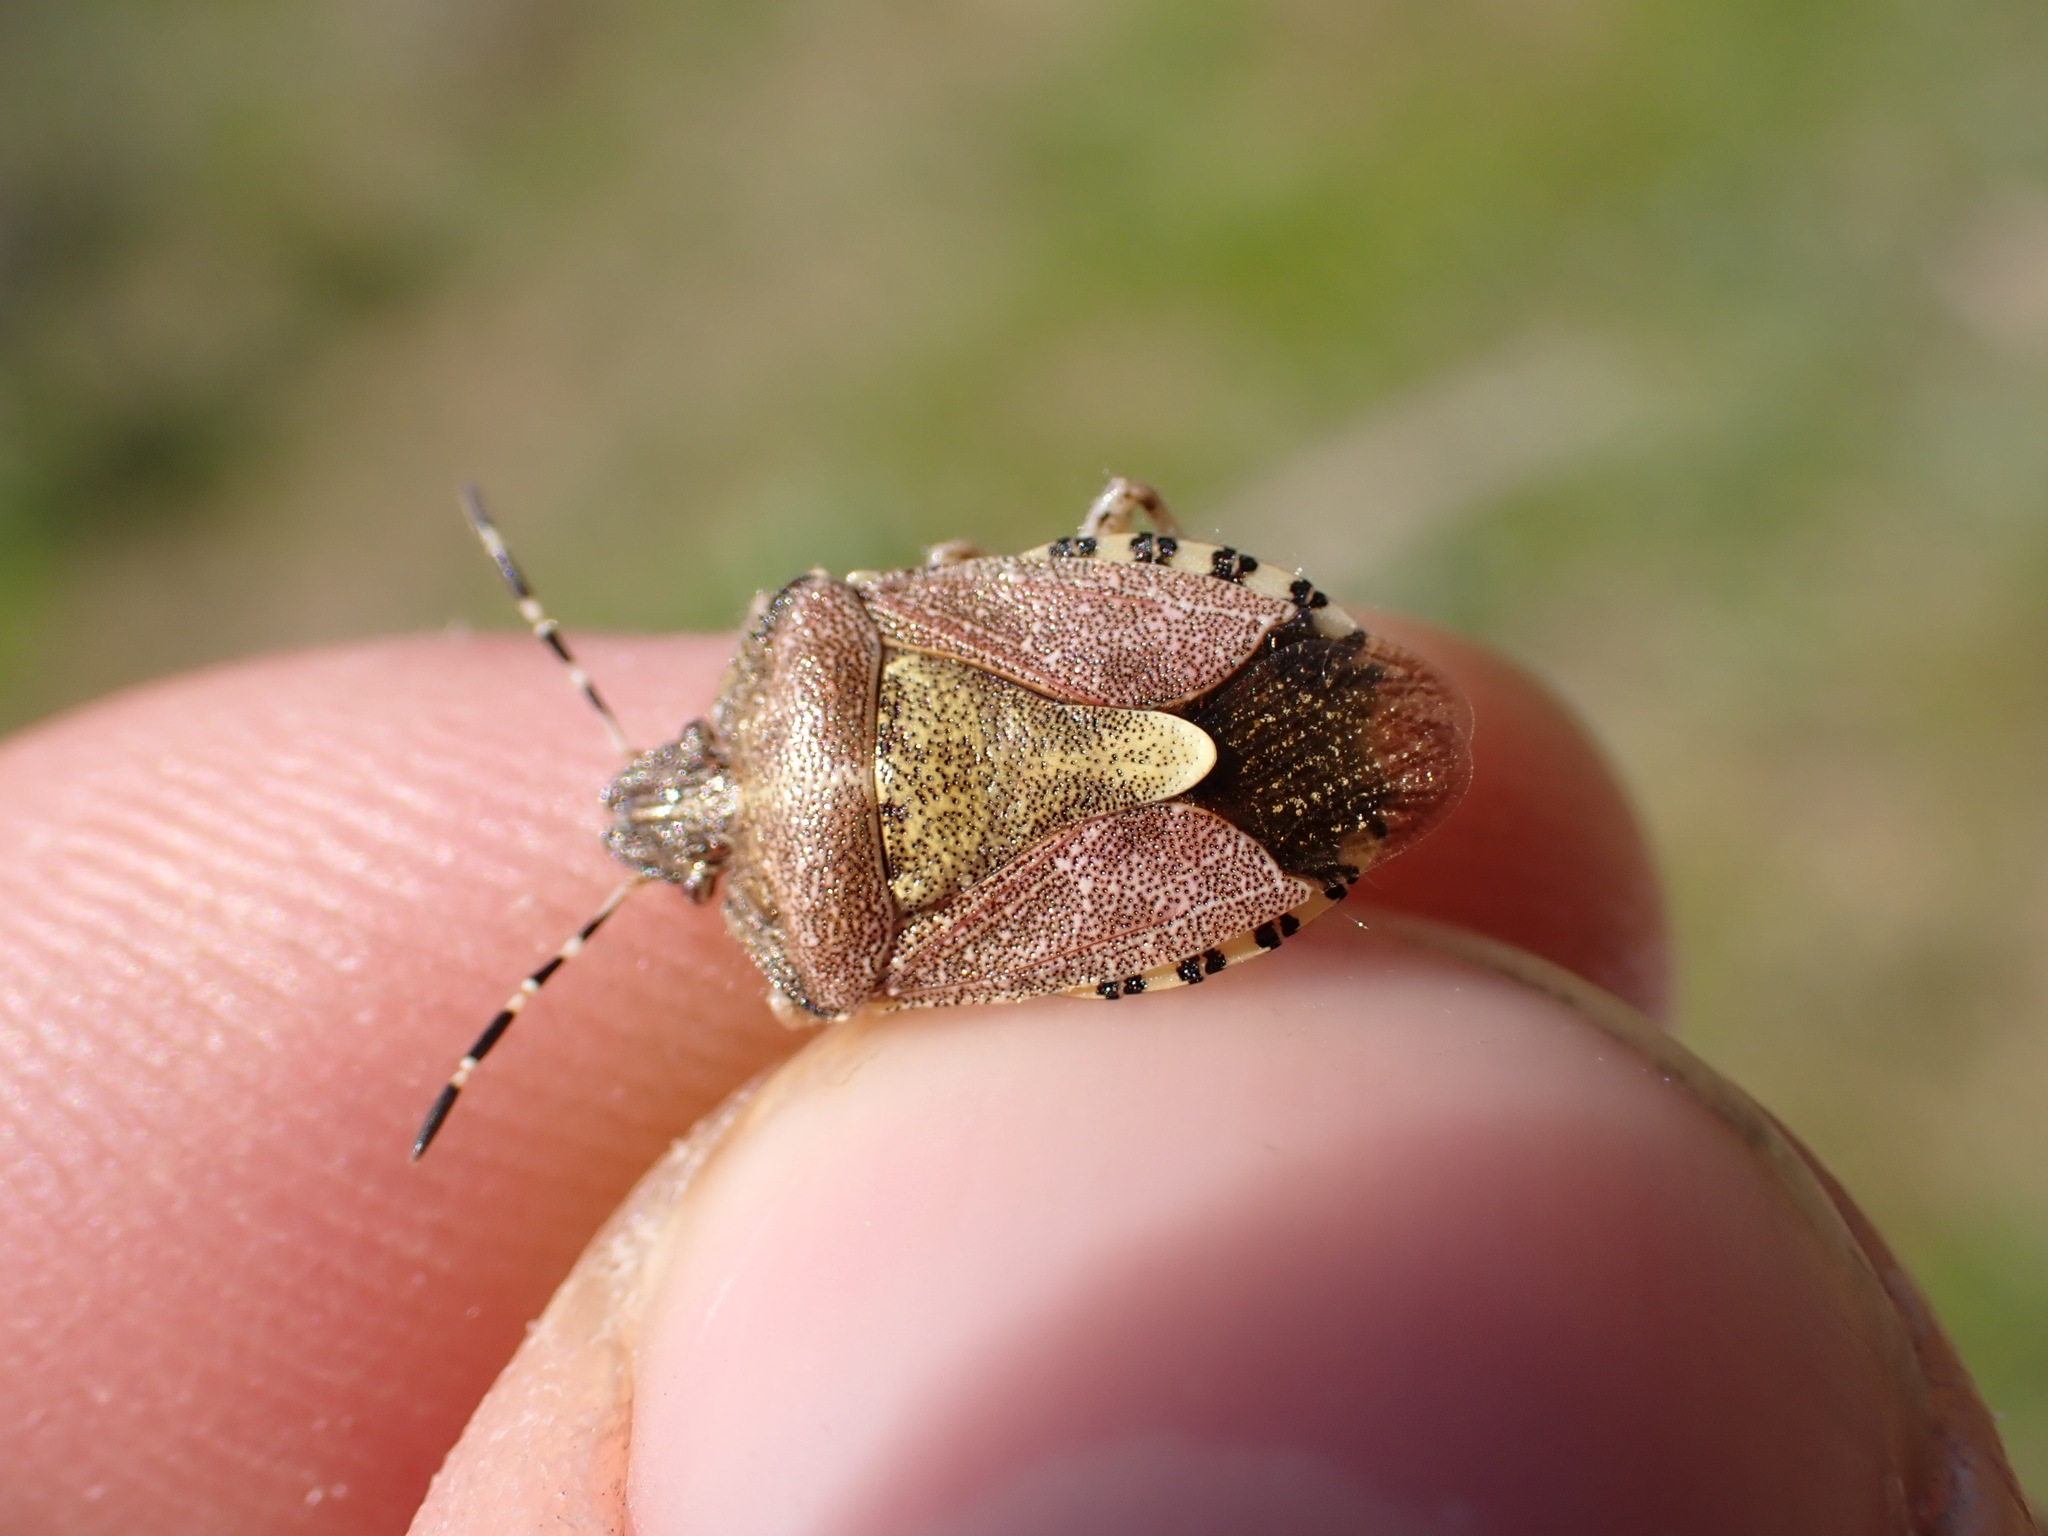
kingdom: Animalia
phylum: Arthropoda
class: Insecta
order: Hemiptera
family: Pentatomidae
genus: Dolycoris
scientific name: Dolycoris baccarum
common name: Sloe bug
